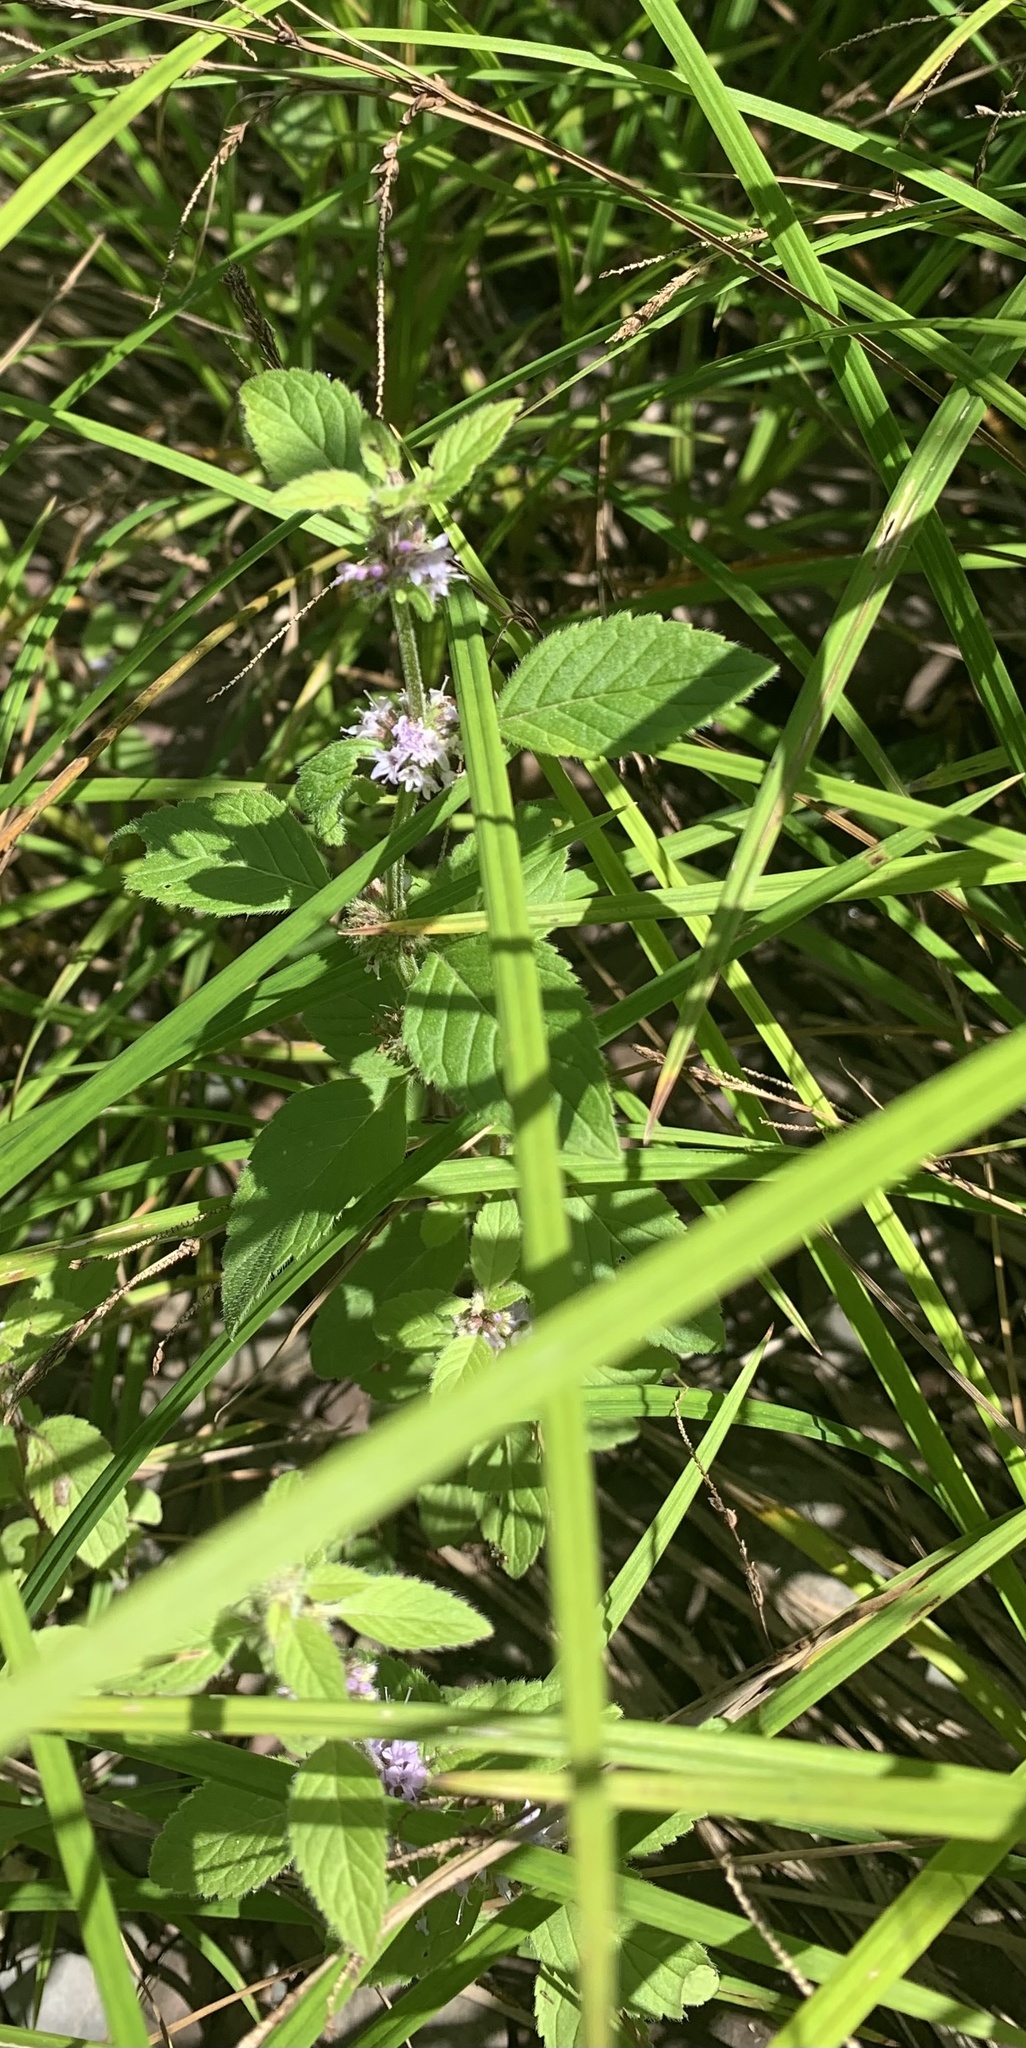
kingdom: Plantae
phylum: Tracheophyta
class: Magnoliopsida
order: Lamiales
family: Lamiaceae
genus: Mentha
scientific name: Mentha canadensis
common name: American corn mint
